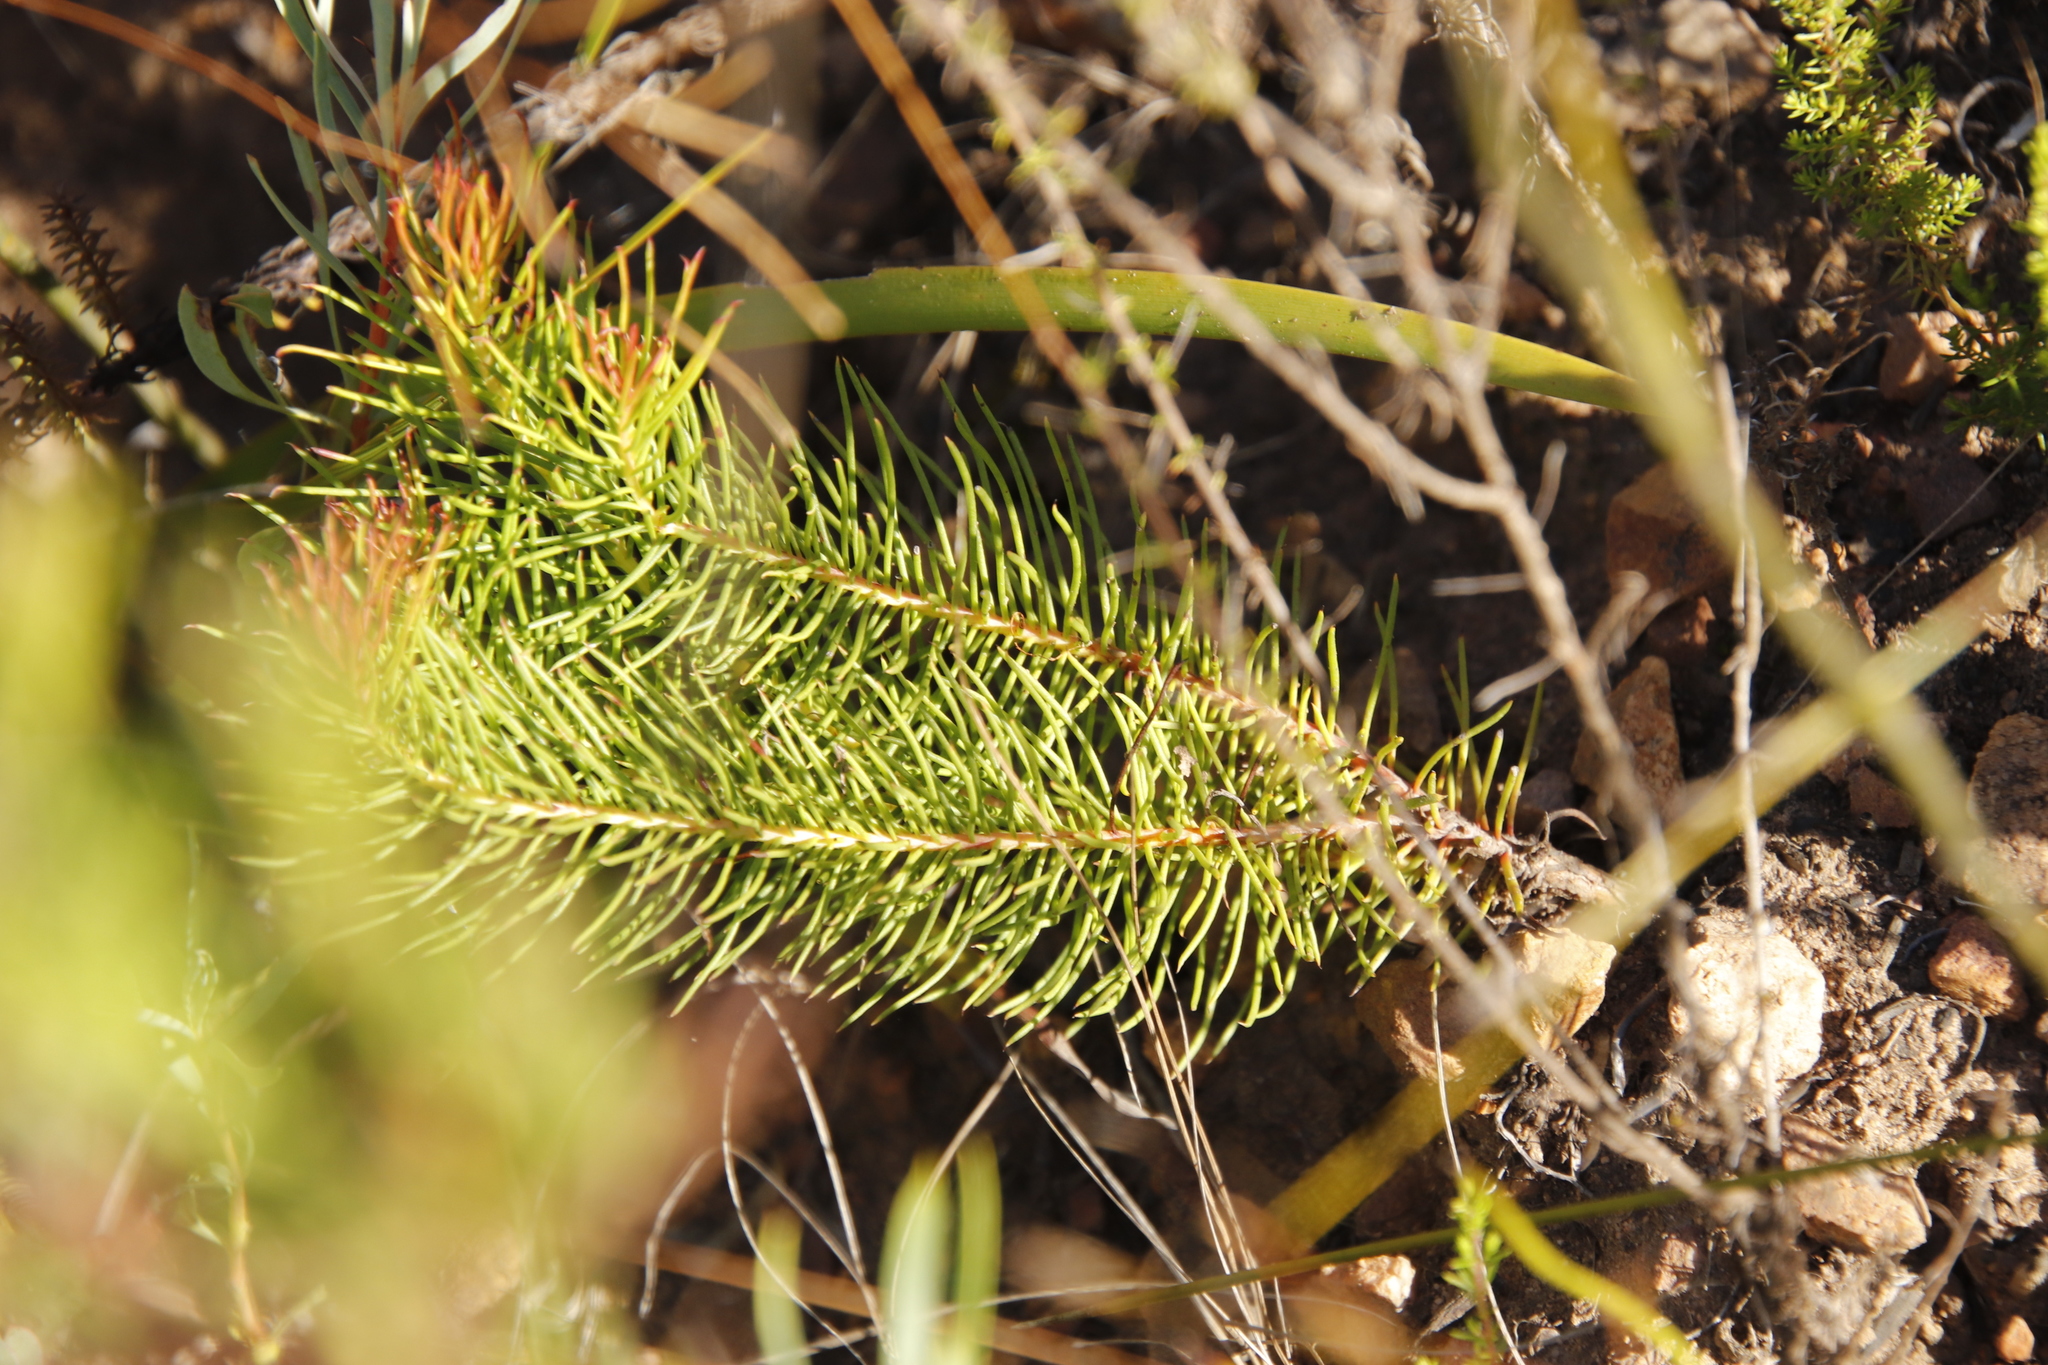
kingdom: Plantae
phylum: Tracheophyta
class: Magnoliopsida
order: Proteales
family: Proteaceae
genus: Protea
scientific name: Protea subulifolia
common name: Awl-leaf sugarbush
